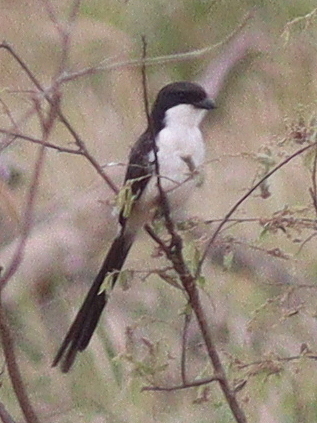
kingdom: Animalia
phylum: Chordata
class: Aves
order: Passeriformes
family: Laniidae
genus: Lanius
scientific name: Lanius cabanisi
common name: Long-tailed fiscal
